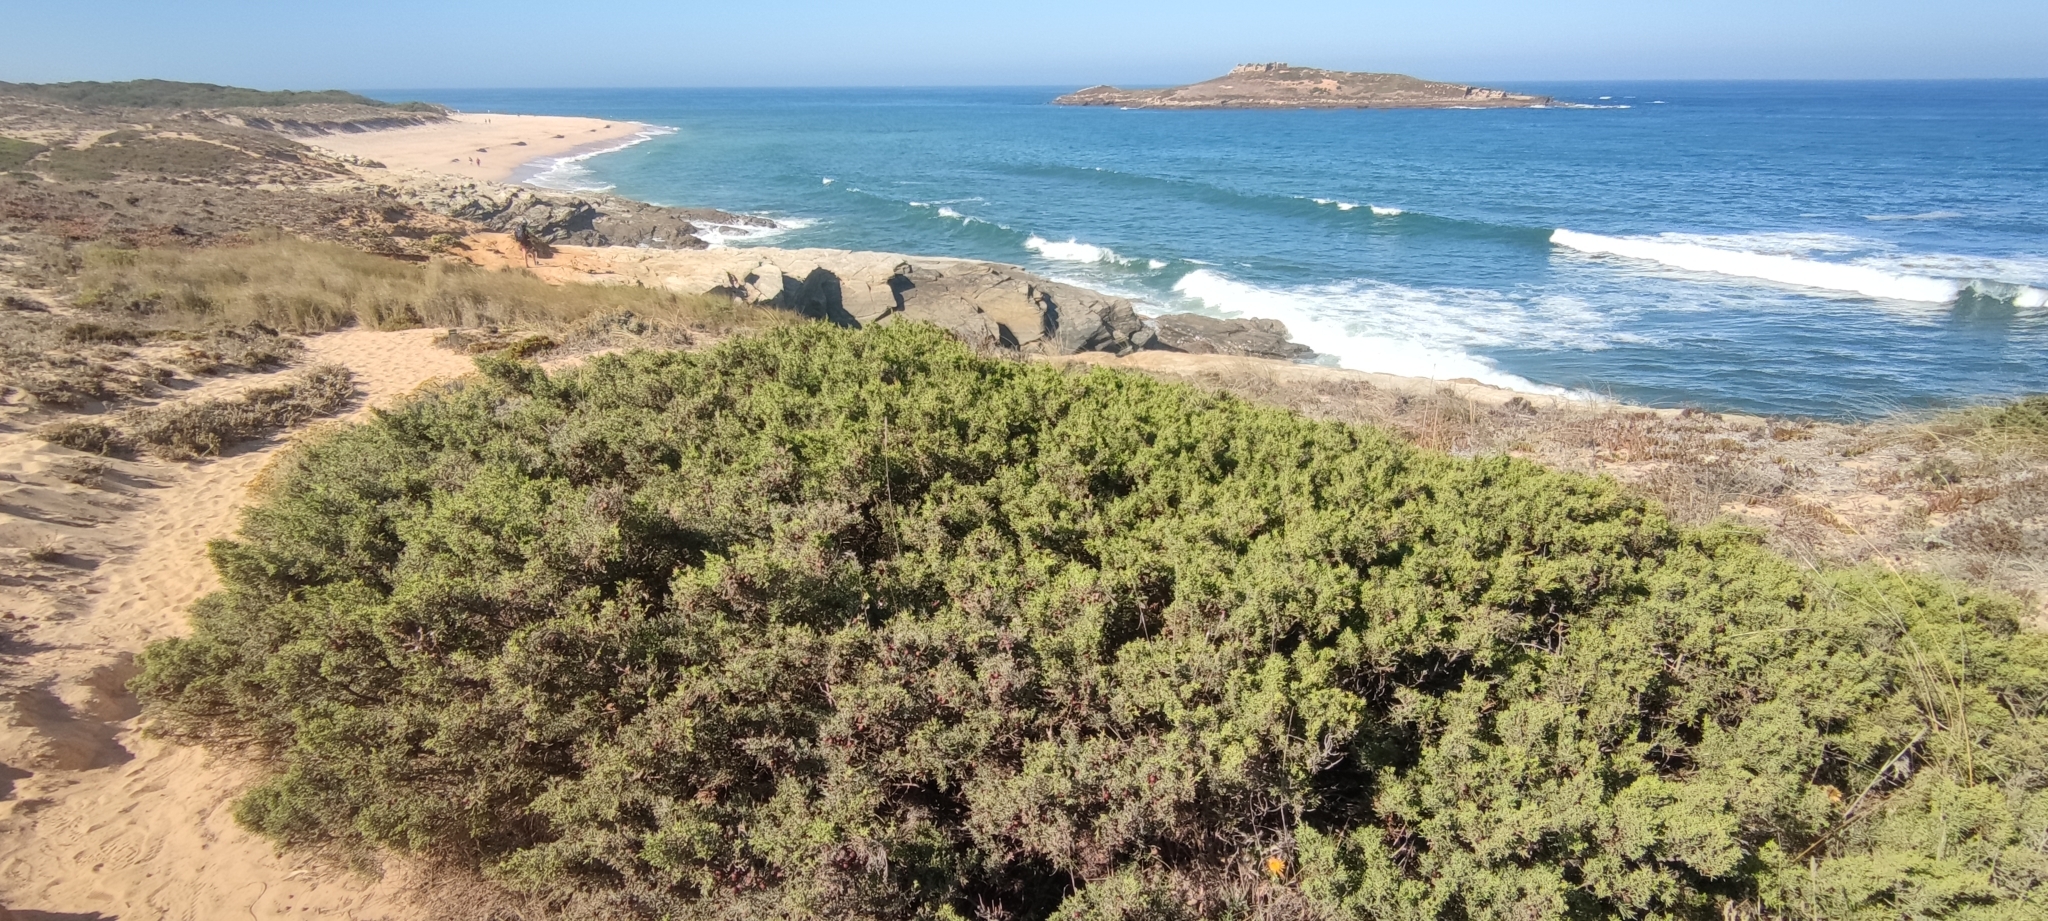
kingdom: Plantae
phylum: Tracheophyta
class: Pinopsida
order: Pinales
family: Cupressaceae
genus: Juniperus
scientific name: Juniperus phoenicea
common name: Phoenician juniper
